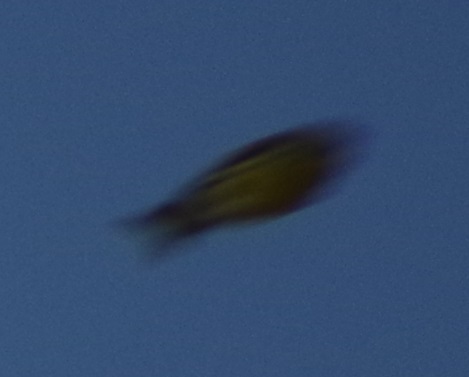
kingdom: Animalia
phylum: Chordata
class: Aves
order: Passeriformes
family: Fringillidae
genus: Serinus
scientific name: Serinus serinus
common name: European serin
